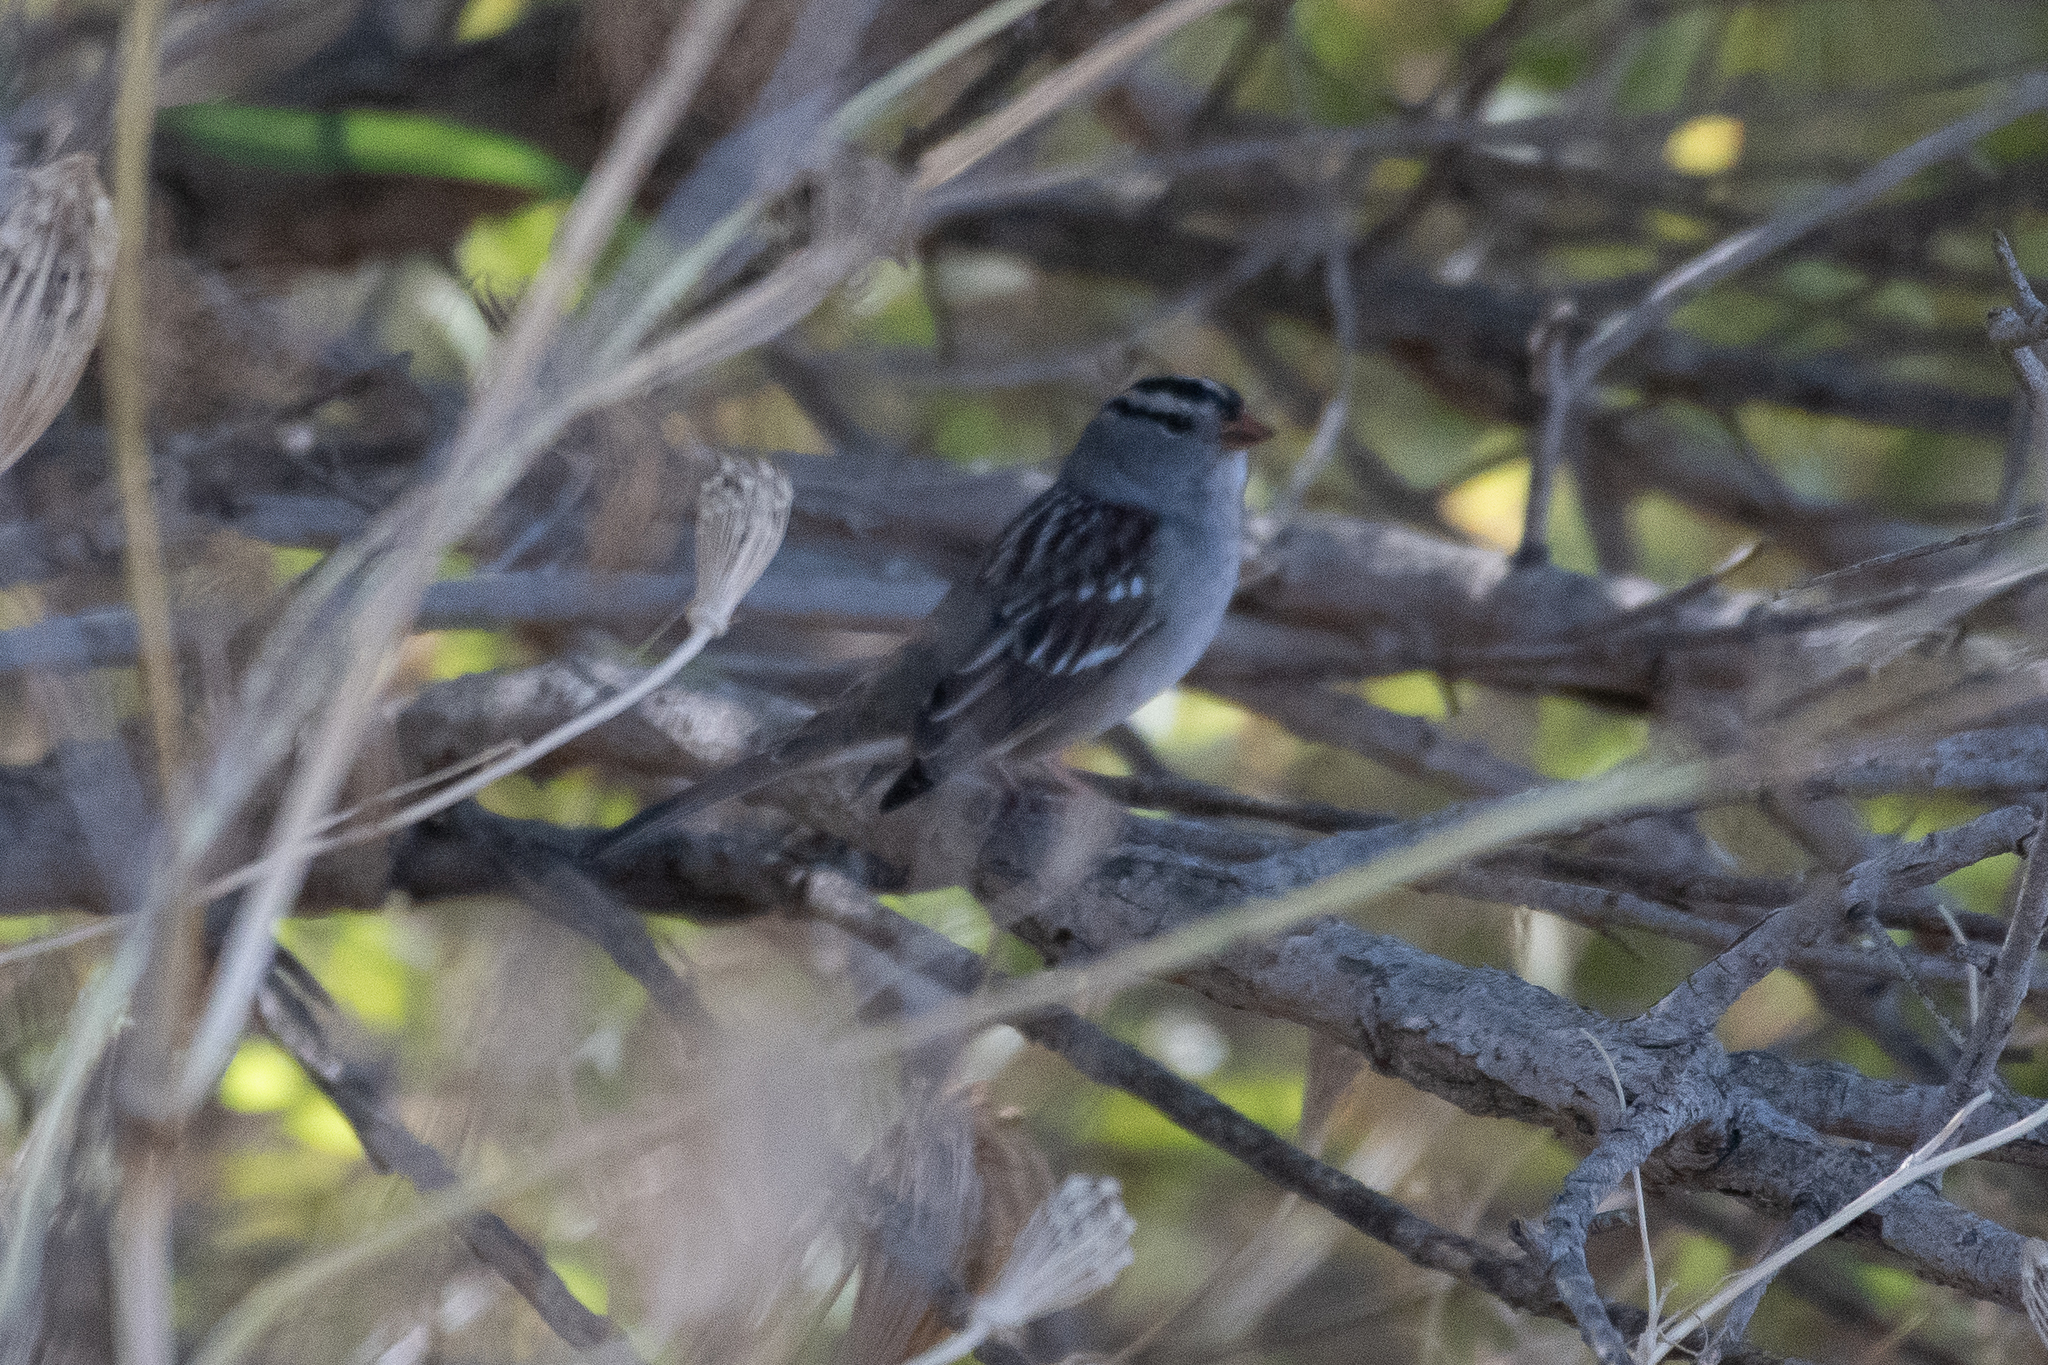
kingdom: Animalia
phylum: Chordata
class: Aves
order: Passeriformes
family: Passerellidae
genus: Zonotrichia
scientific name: Zonotrichia leucophrys
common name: White-crowned sparrow
